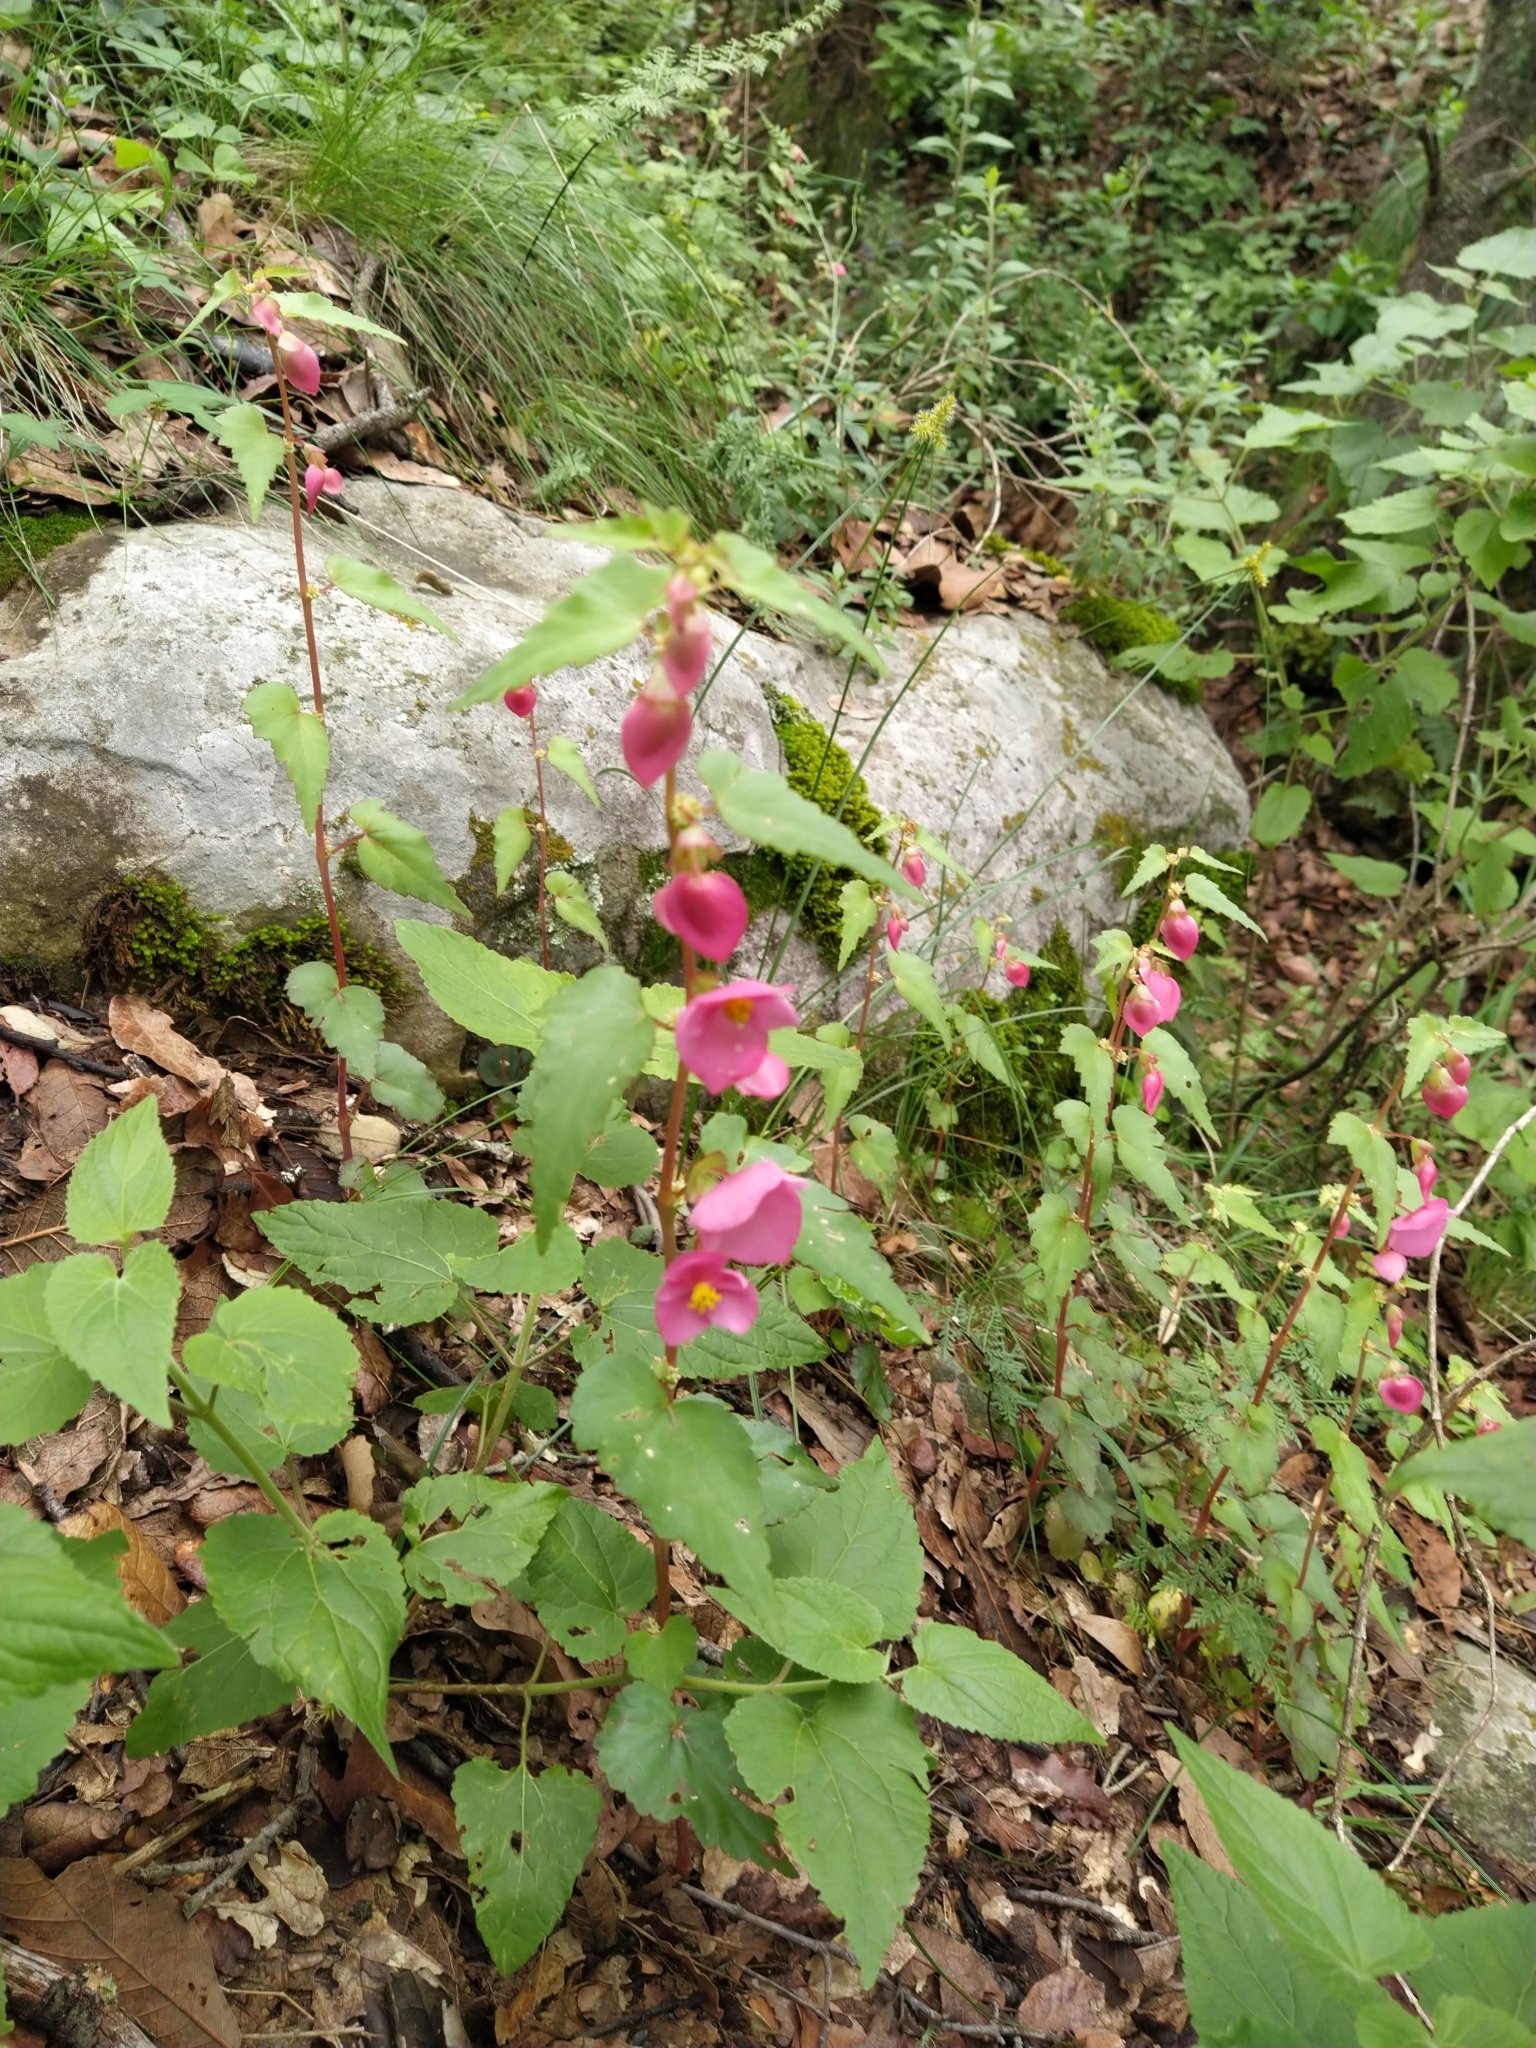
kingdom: Plantae
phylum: Tracheophyta
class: Magnoliopsida
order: Cucurbitales
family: Begoniaceae
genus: Begonia
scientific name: Begonia gracilis
